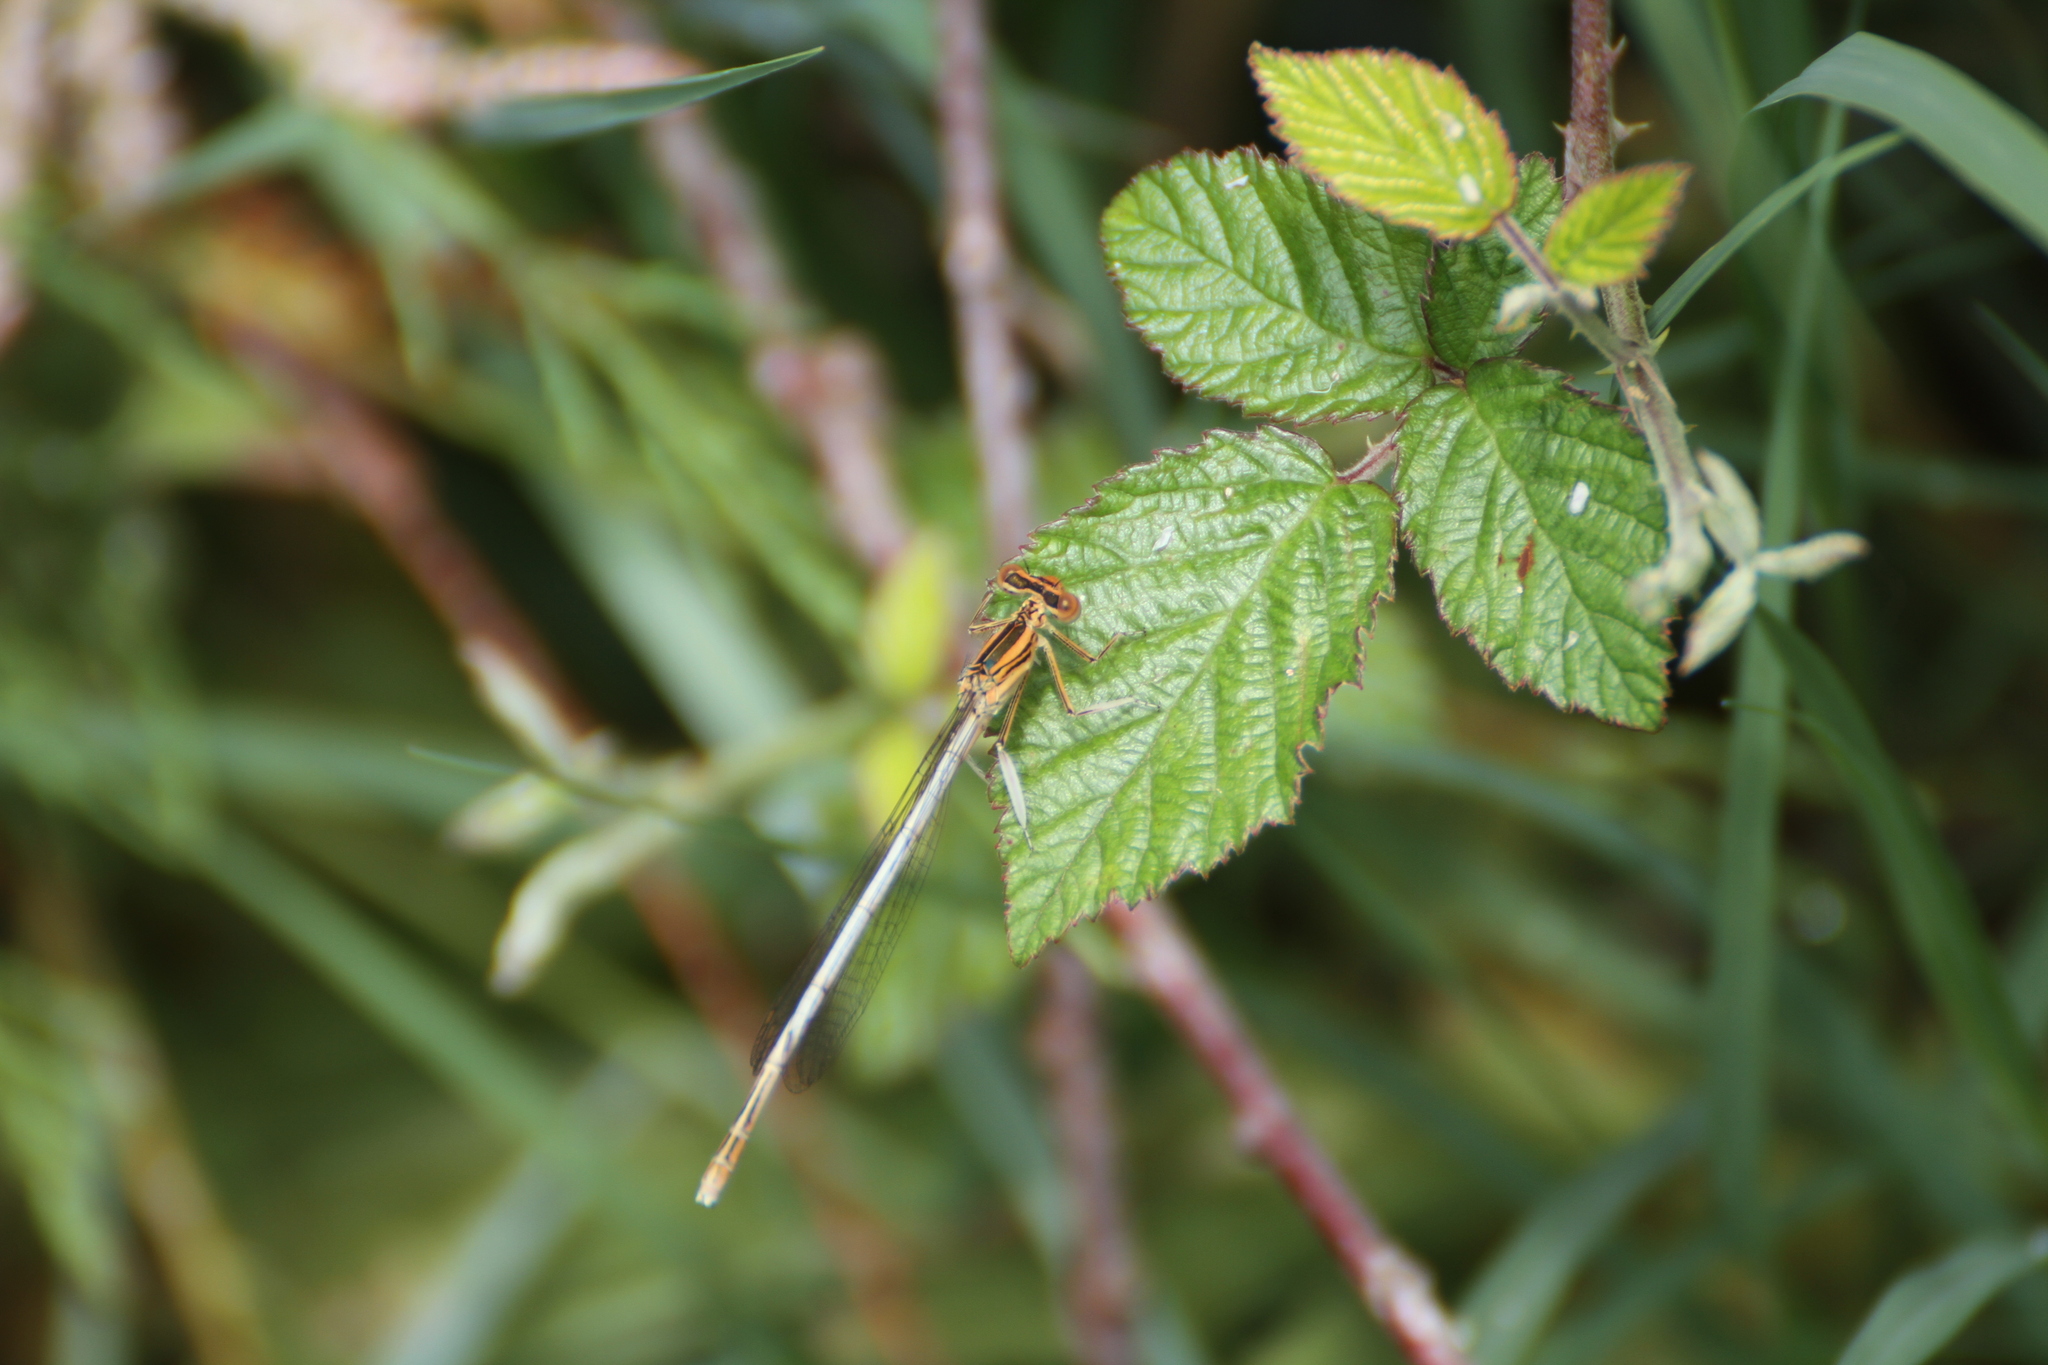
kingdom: Animalia
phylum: Arthropoda
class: Insecta
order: Odonata
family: Platycnemididae
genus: Platycnemis
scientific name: Platycnemis latipes
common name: White featherleg
